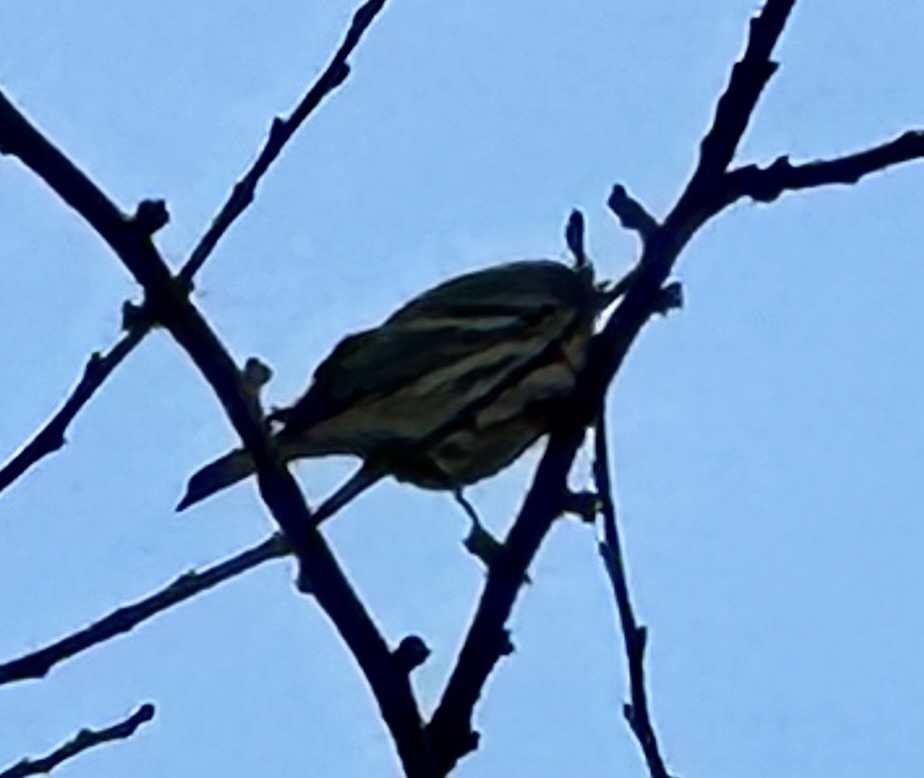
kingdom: Animalia
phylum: Chordata
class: Aves
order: Passeriformes
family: Parulidae
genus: Setophaga
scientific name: Setophaga coronata
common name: Myrtle warbler
